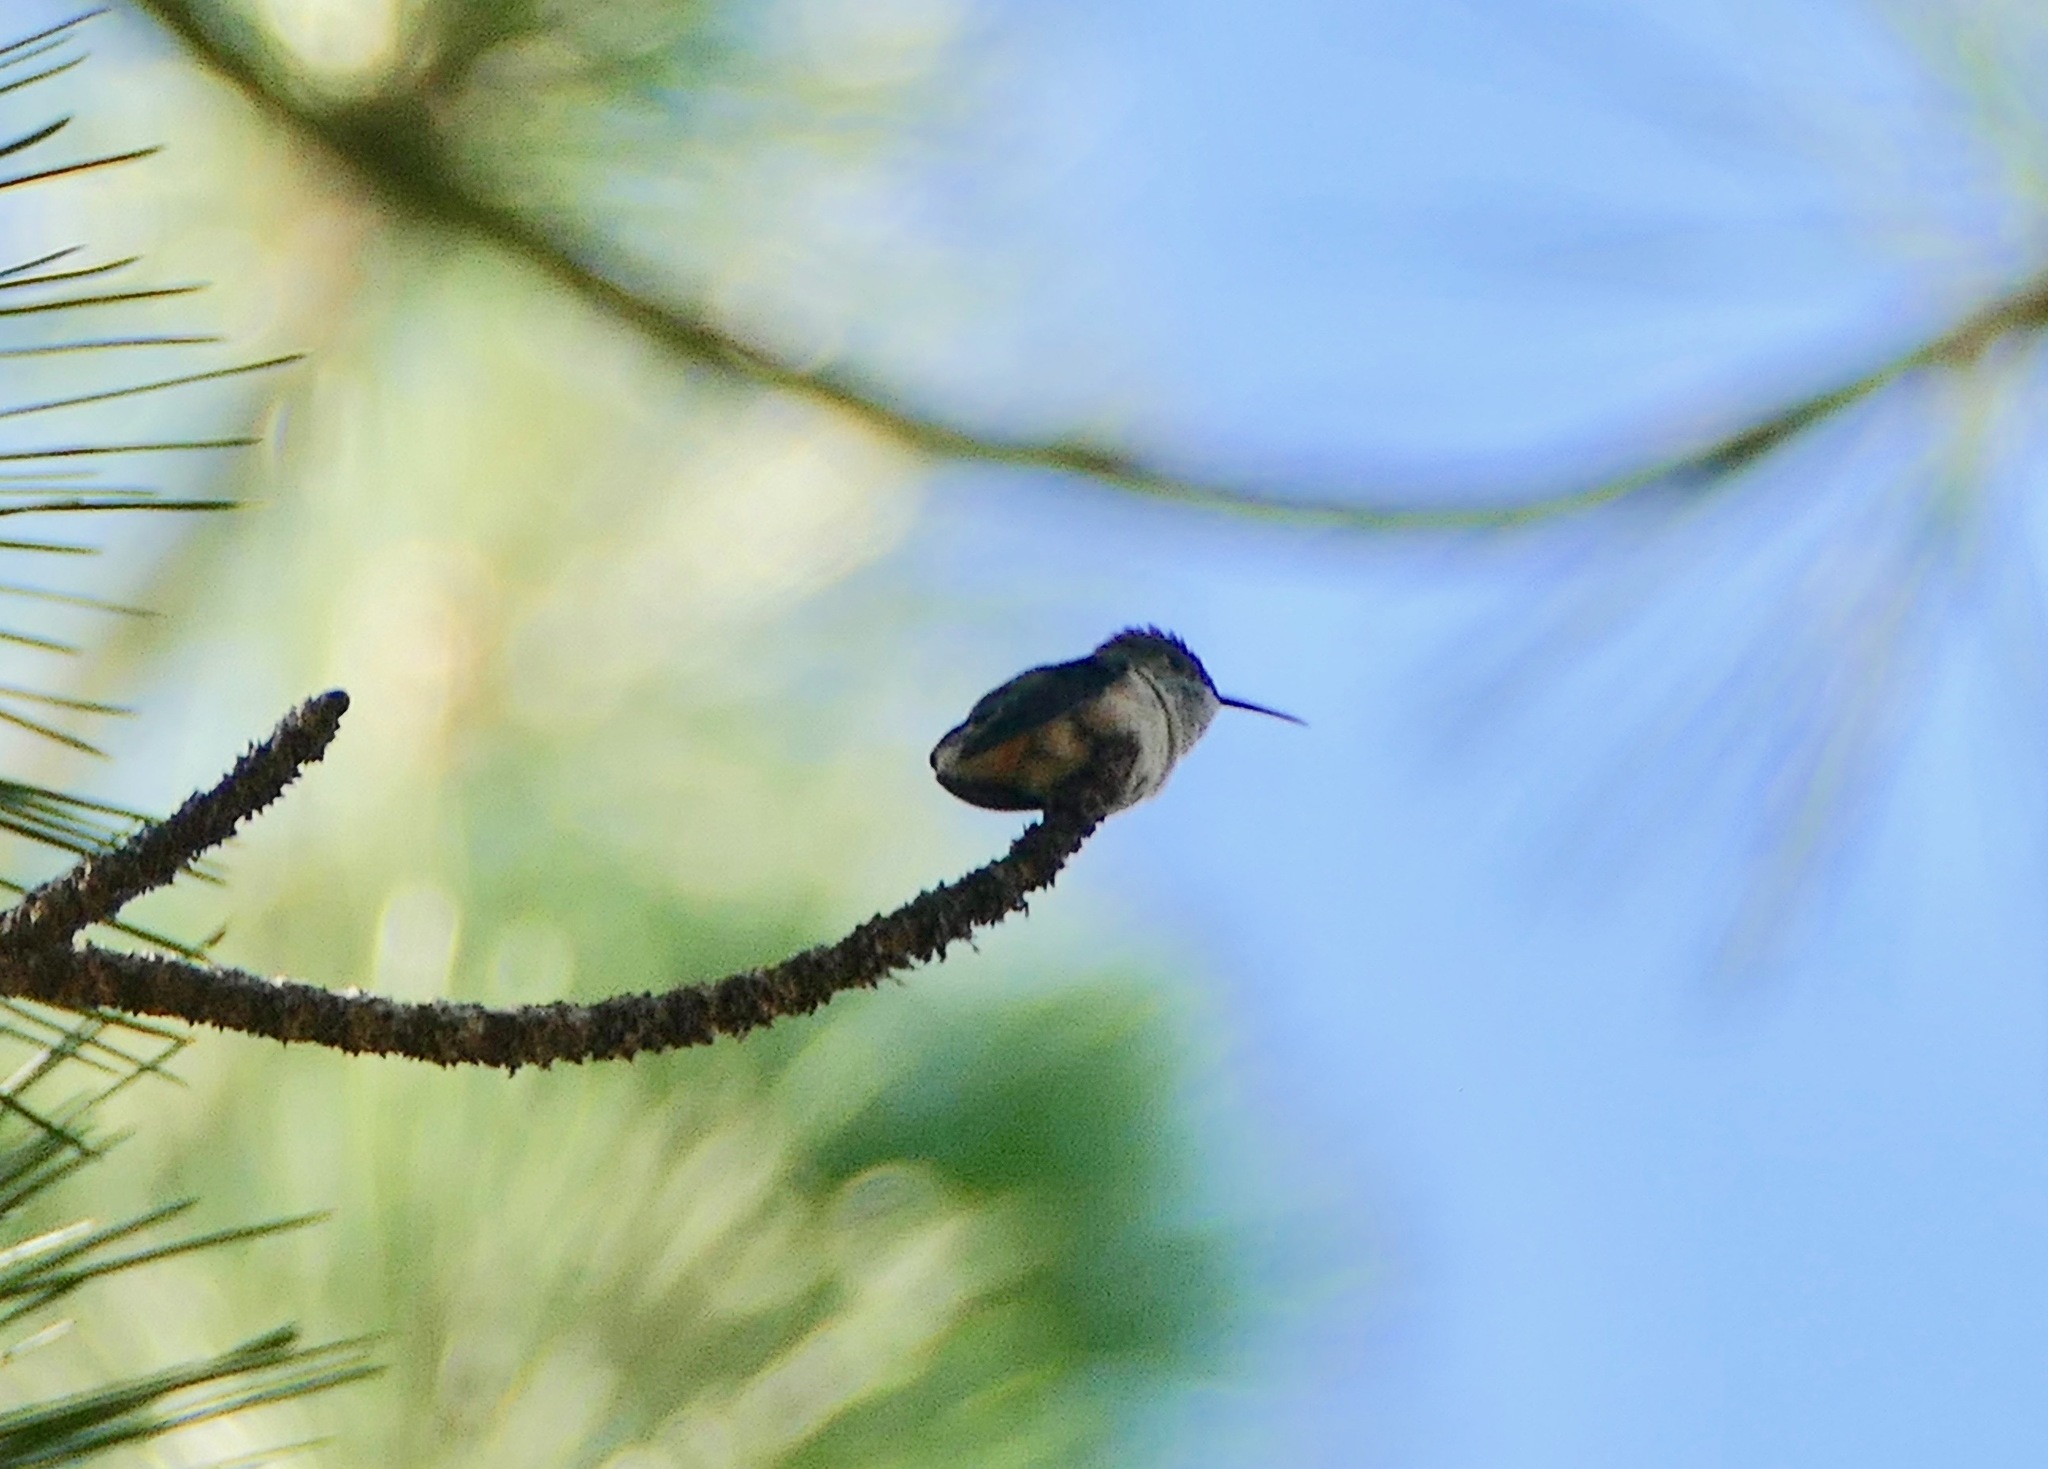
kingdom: Animalia
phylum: Chordata
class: Aves
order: Apodiformes
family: Trochilidae
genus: Selasphorus
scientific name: Selasphorus calliope
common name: Calliope hummingbird
